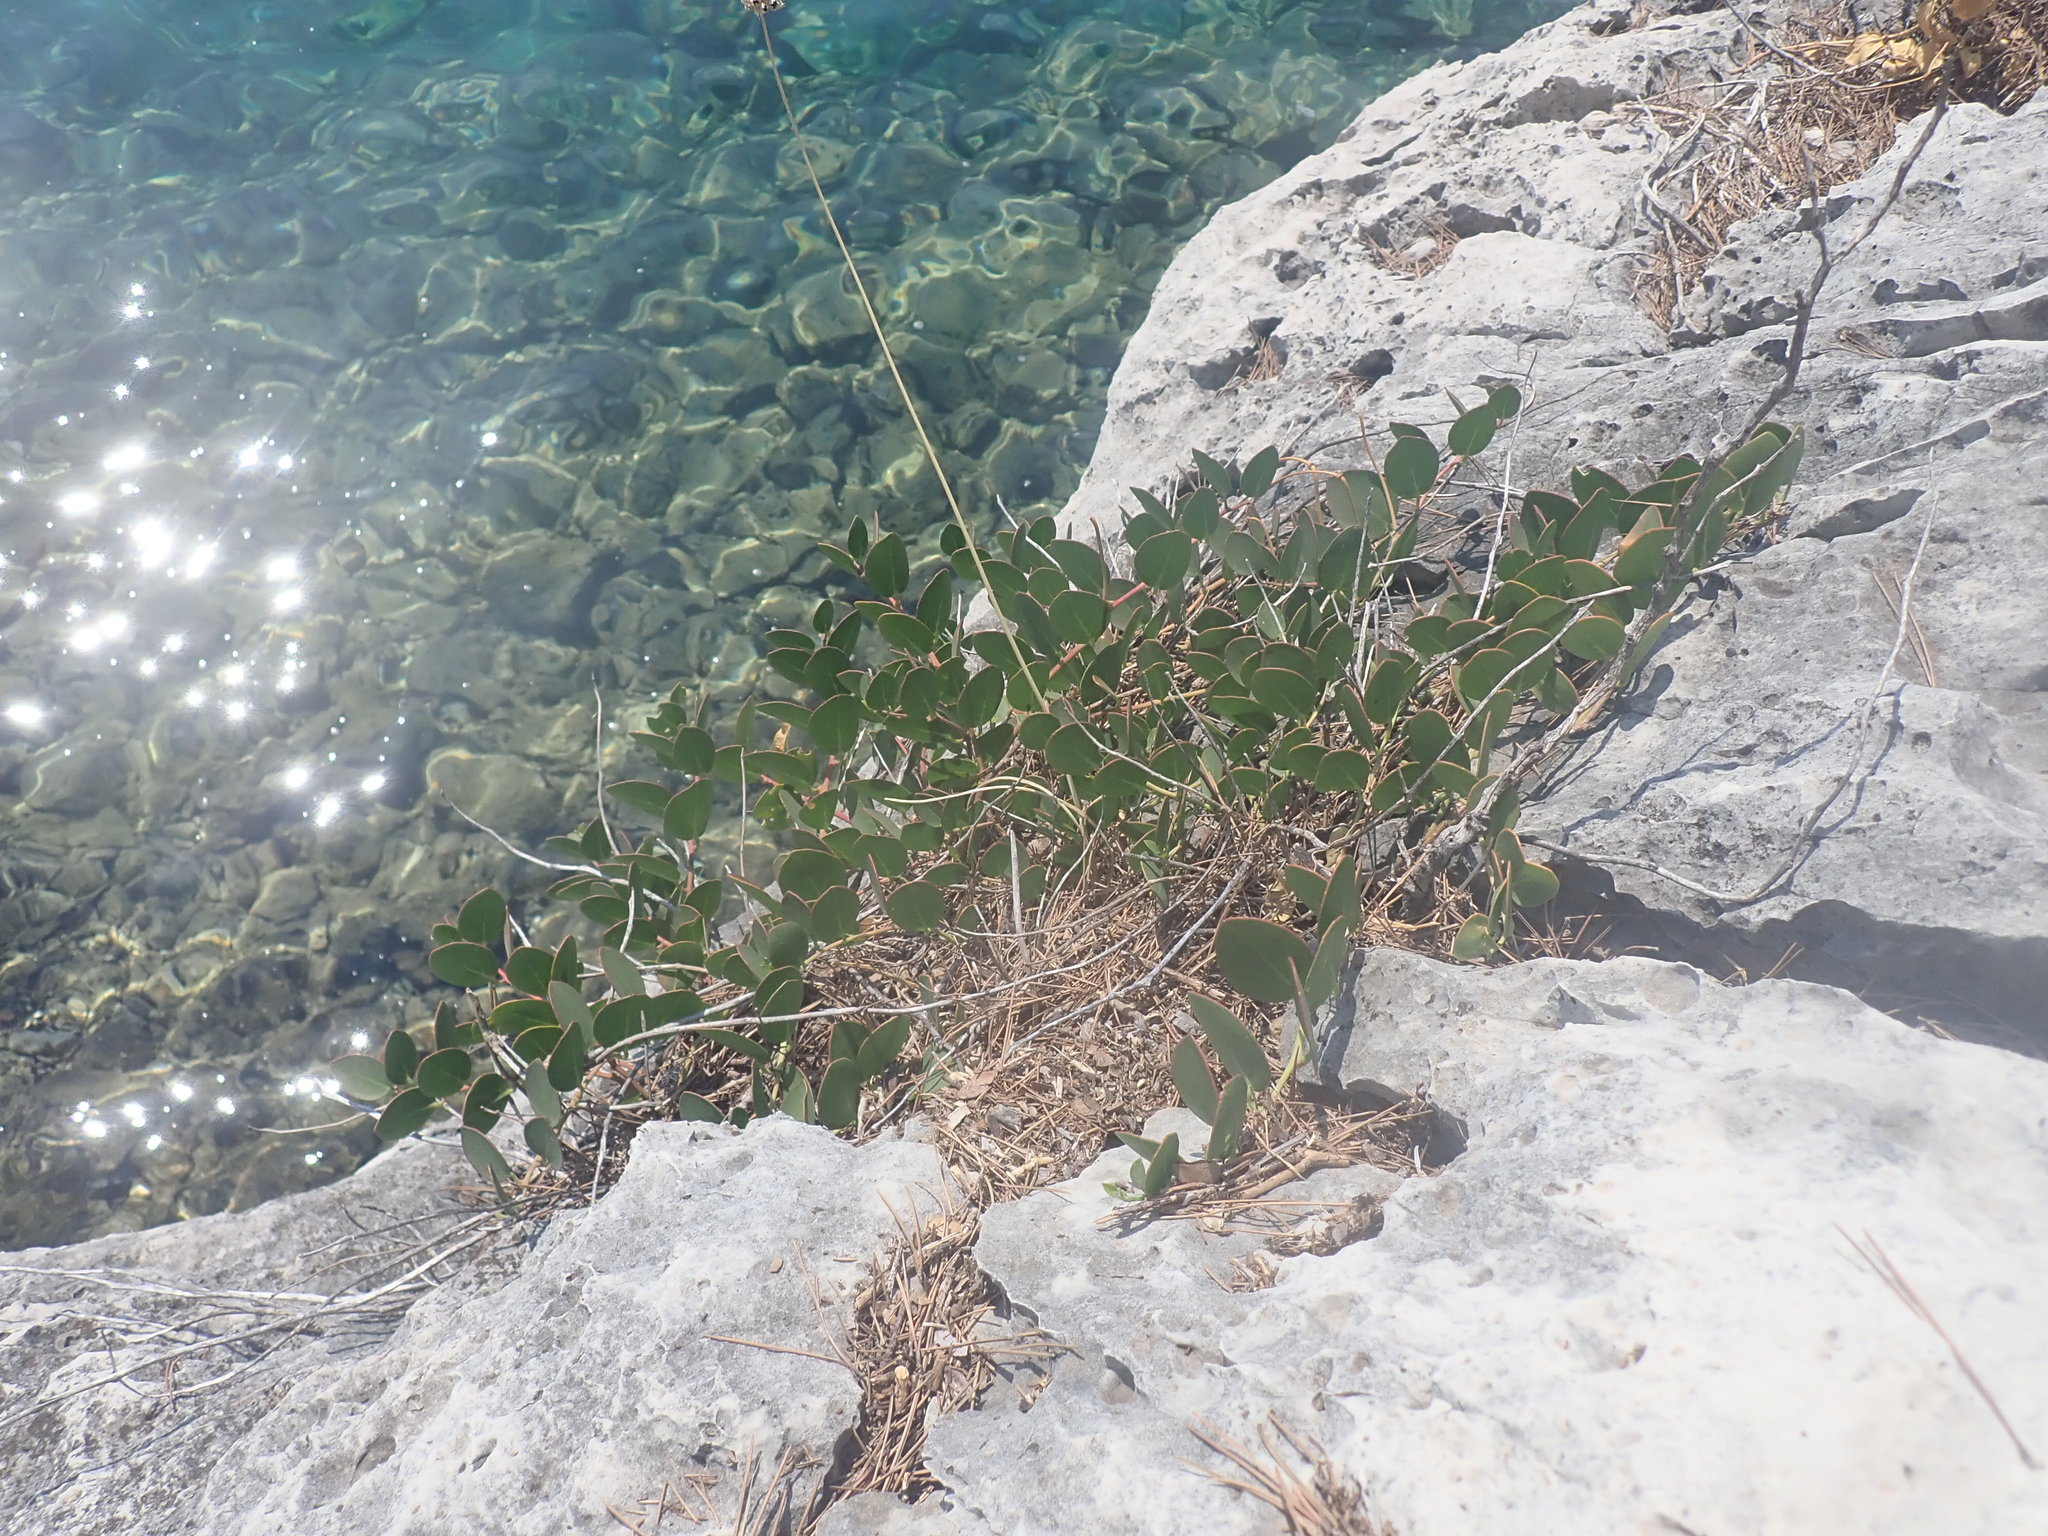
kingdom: Plantae
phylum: Tracheophyta
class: Magnoliopsida
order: Brassicales
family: Capparaceae
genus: Capparis
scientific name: Capparis orientalis
